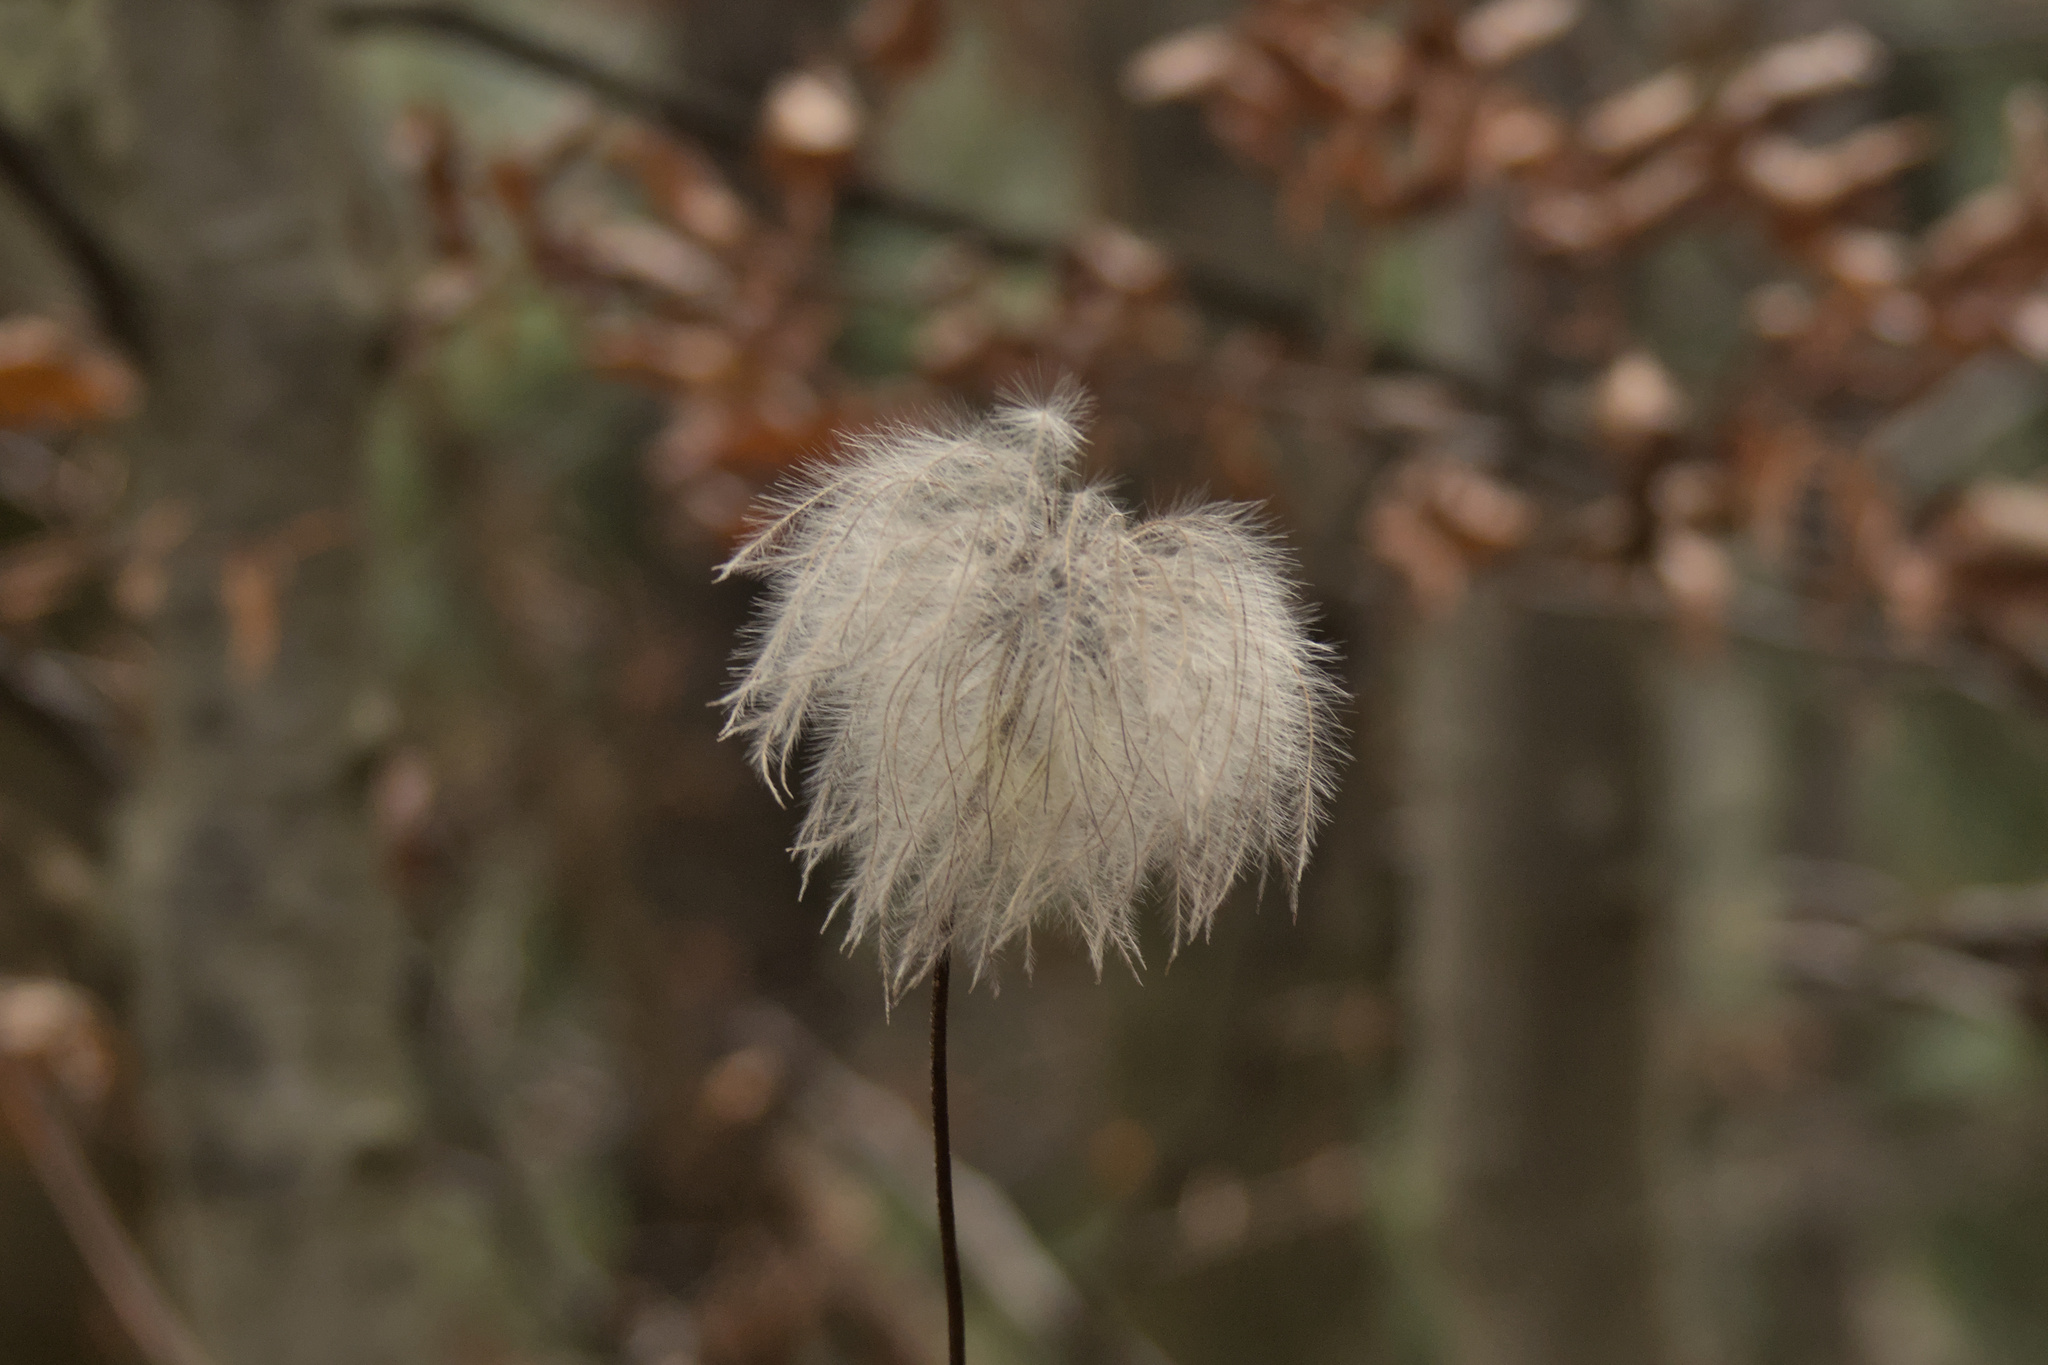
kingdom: Plantae
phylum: Tracheophyta
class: Magnoliopsida
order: Ranunculales
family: Ranunculaceae
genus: Clematis
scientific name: Clematis vitalba
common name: Evergreen clematis
